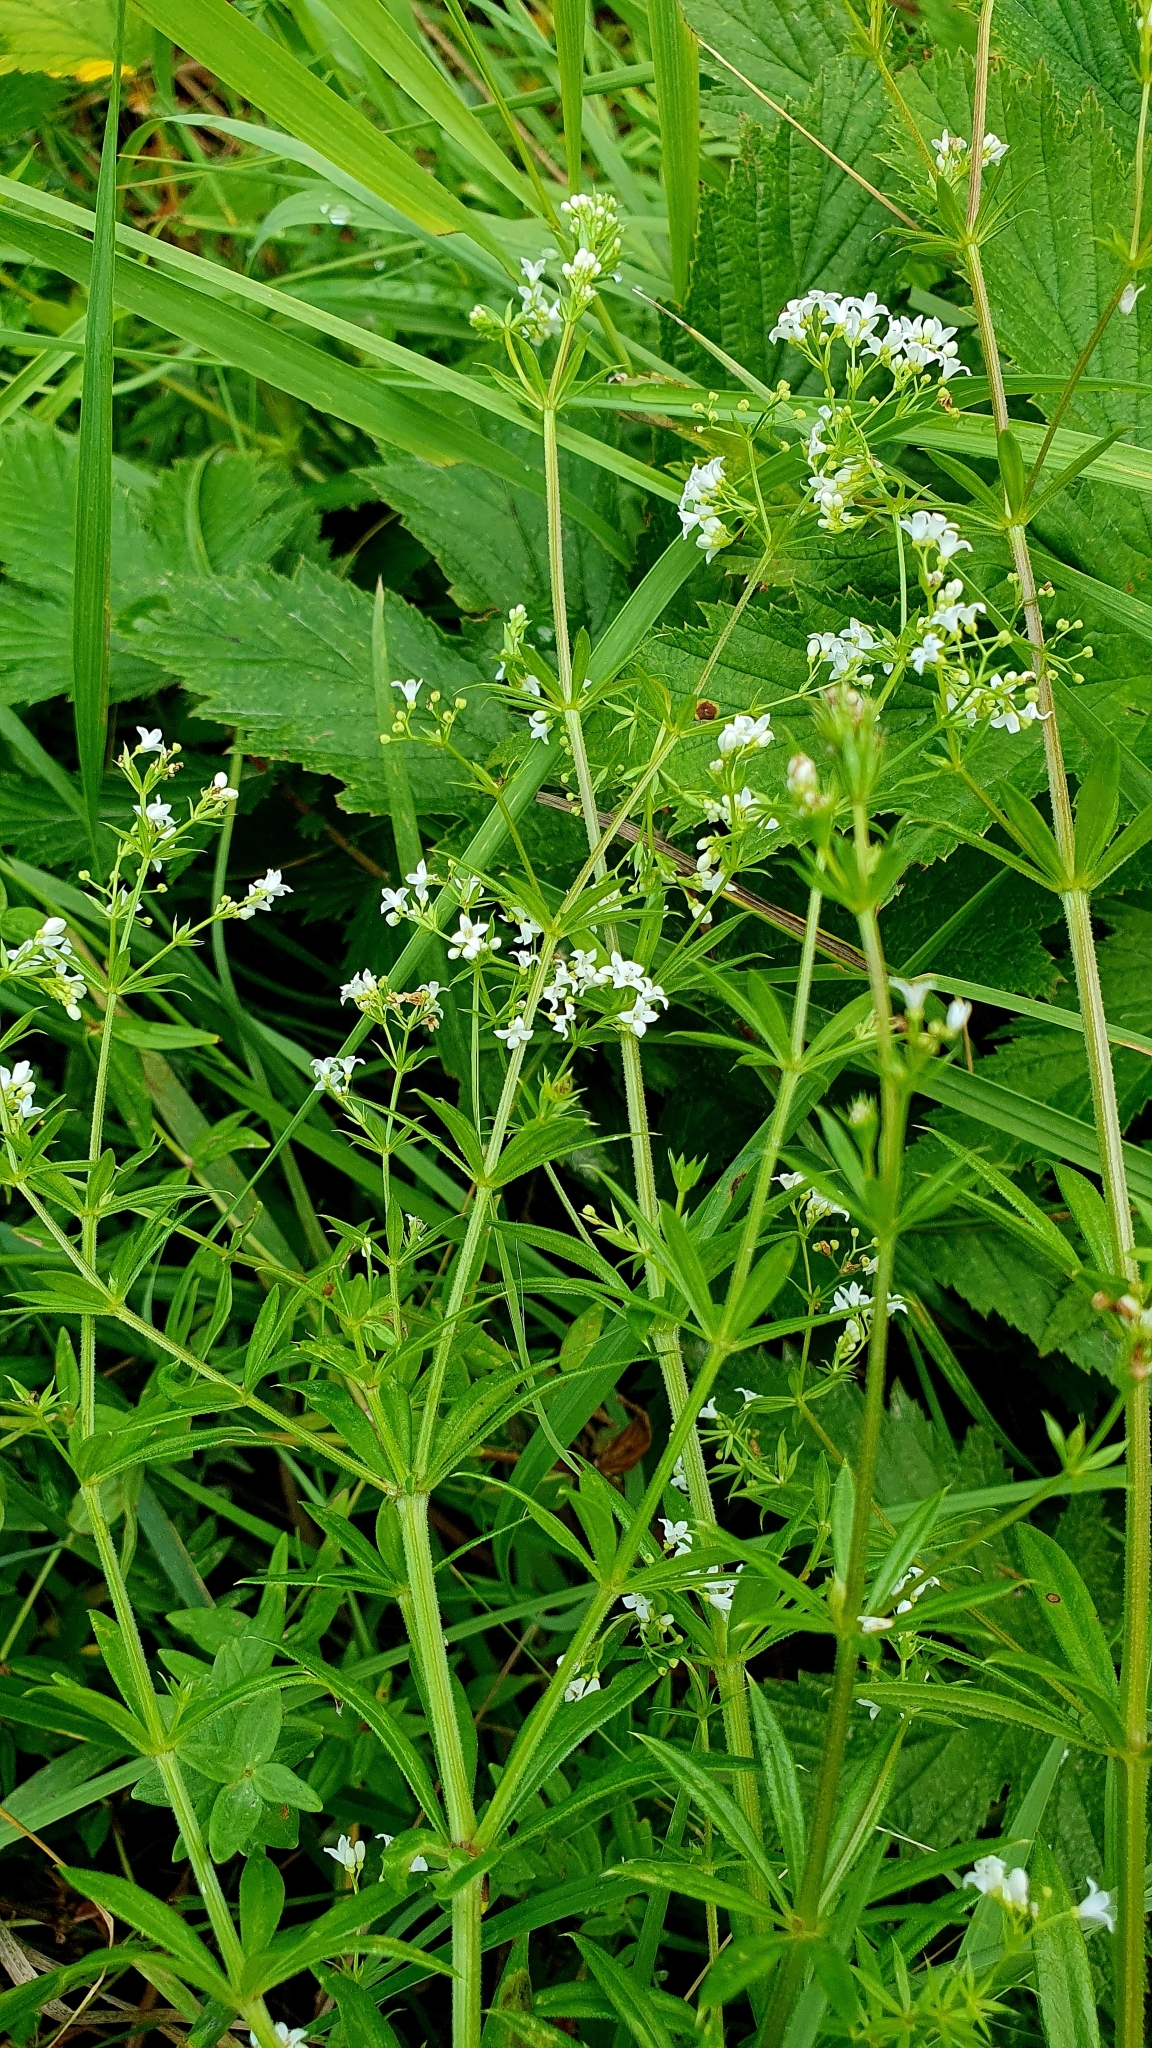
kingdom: Plantae
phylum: Tracheophyta
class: Magnoliopsida
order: Gentianales
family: Rubiaceae
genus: Galium
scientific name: Galium rivale
